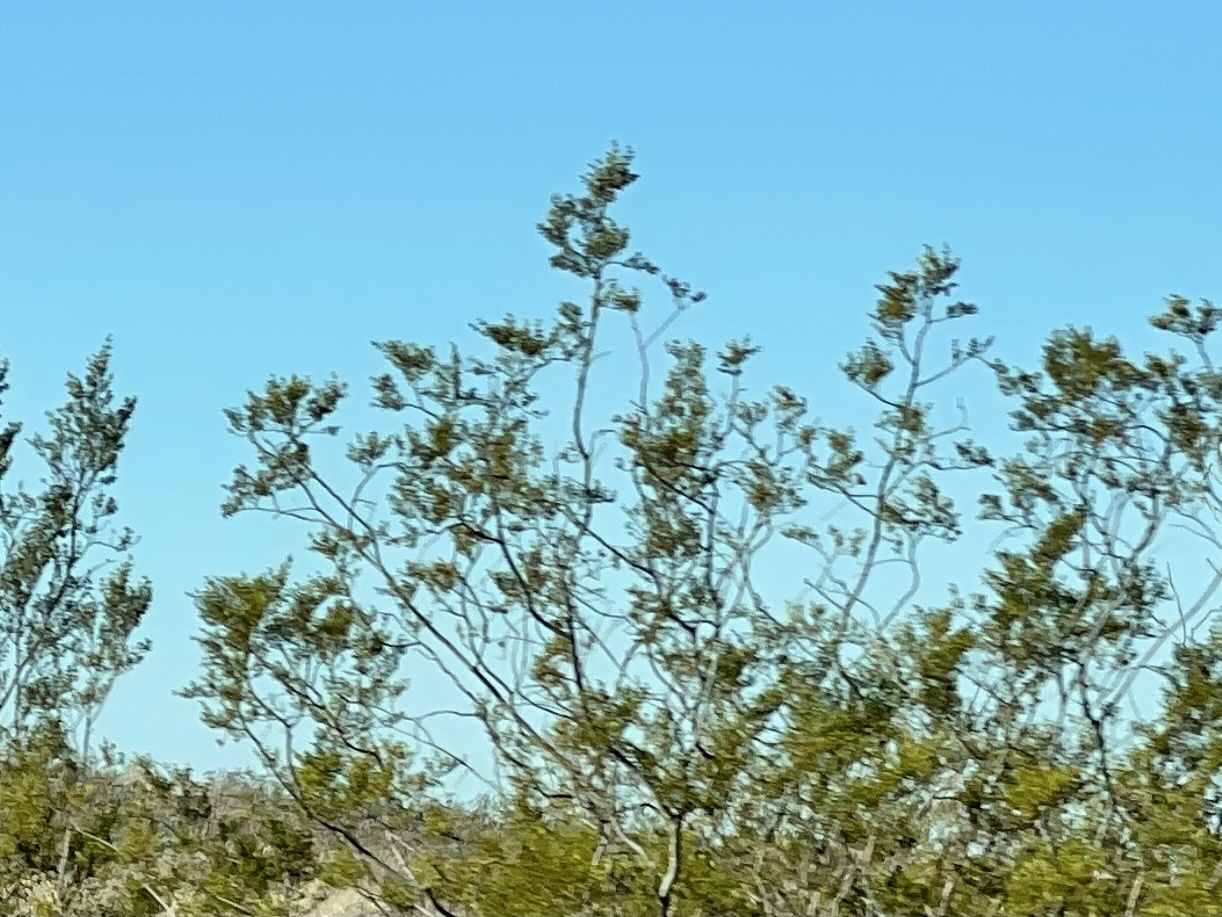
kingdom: Plantae
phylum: Tracheophyta
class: Magnoliopsida
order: Zygophyllales
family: Zygophyllaceae
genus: Larrea
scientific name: Larrea tridentata
